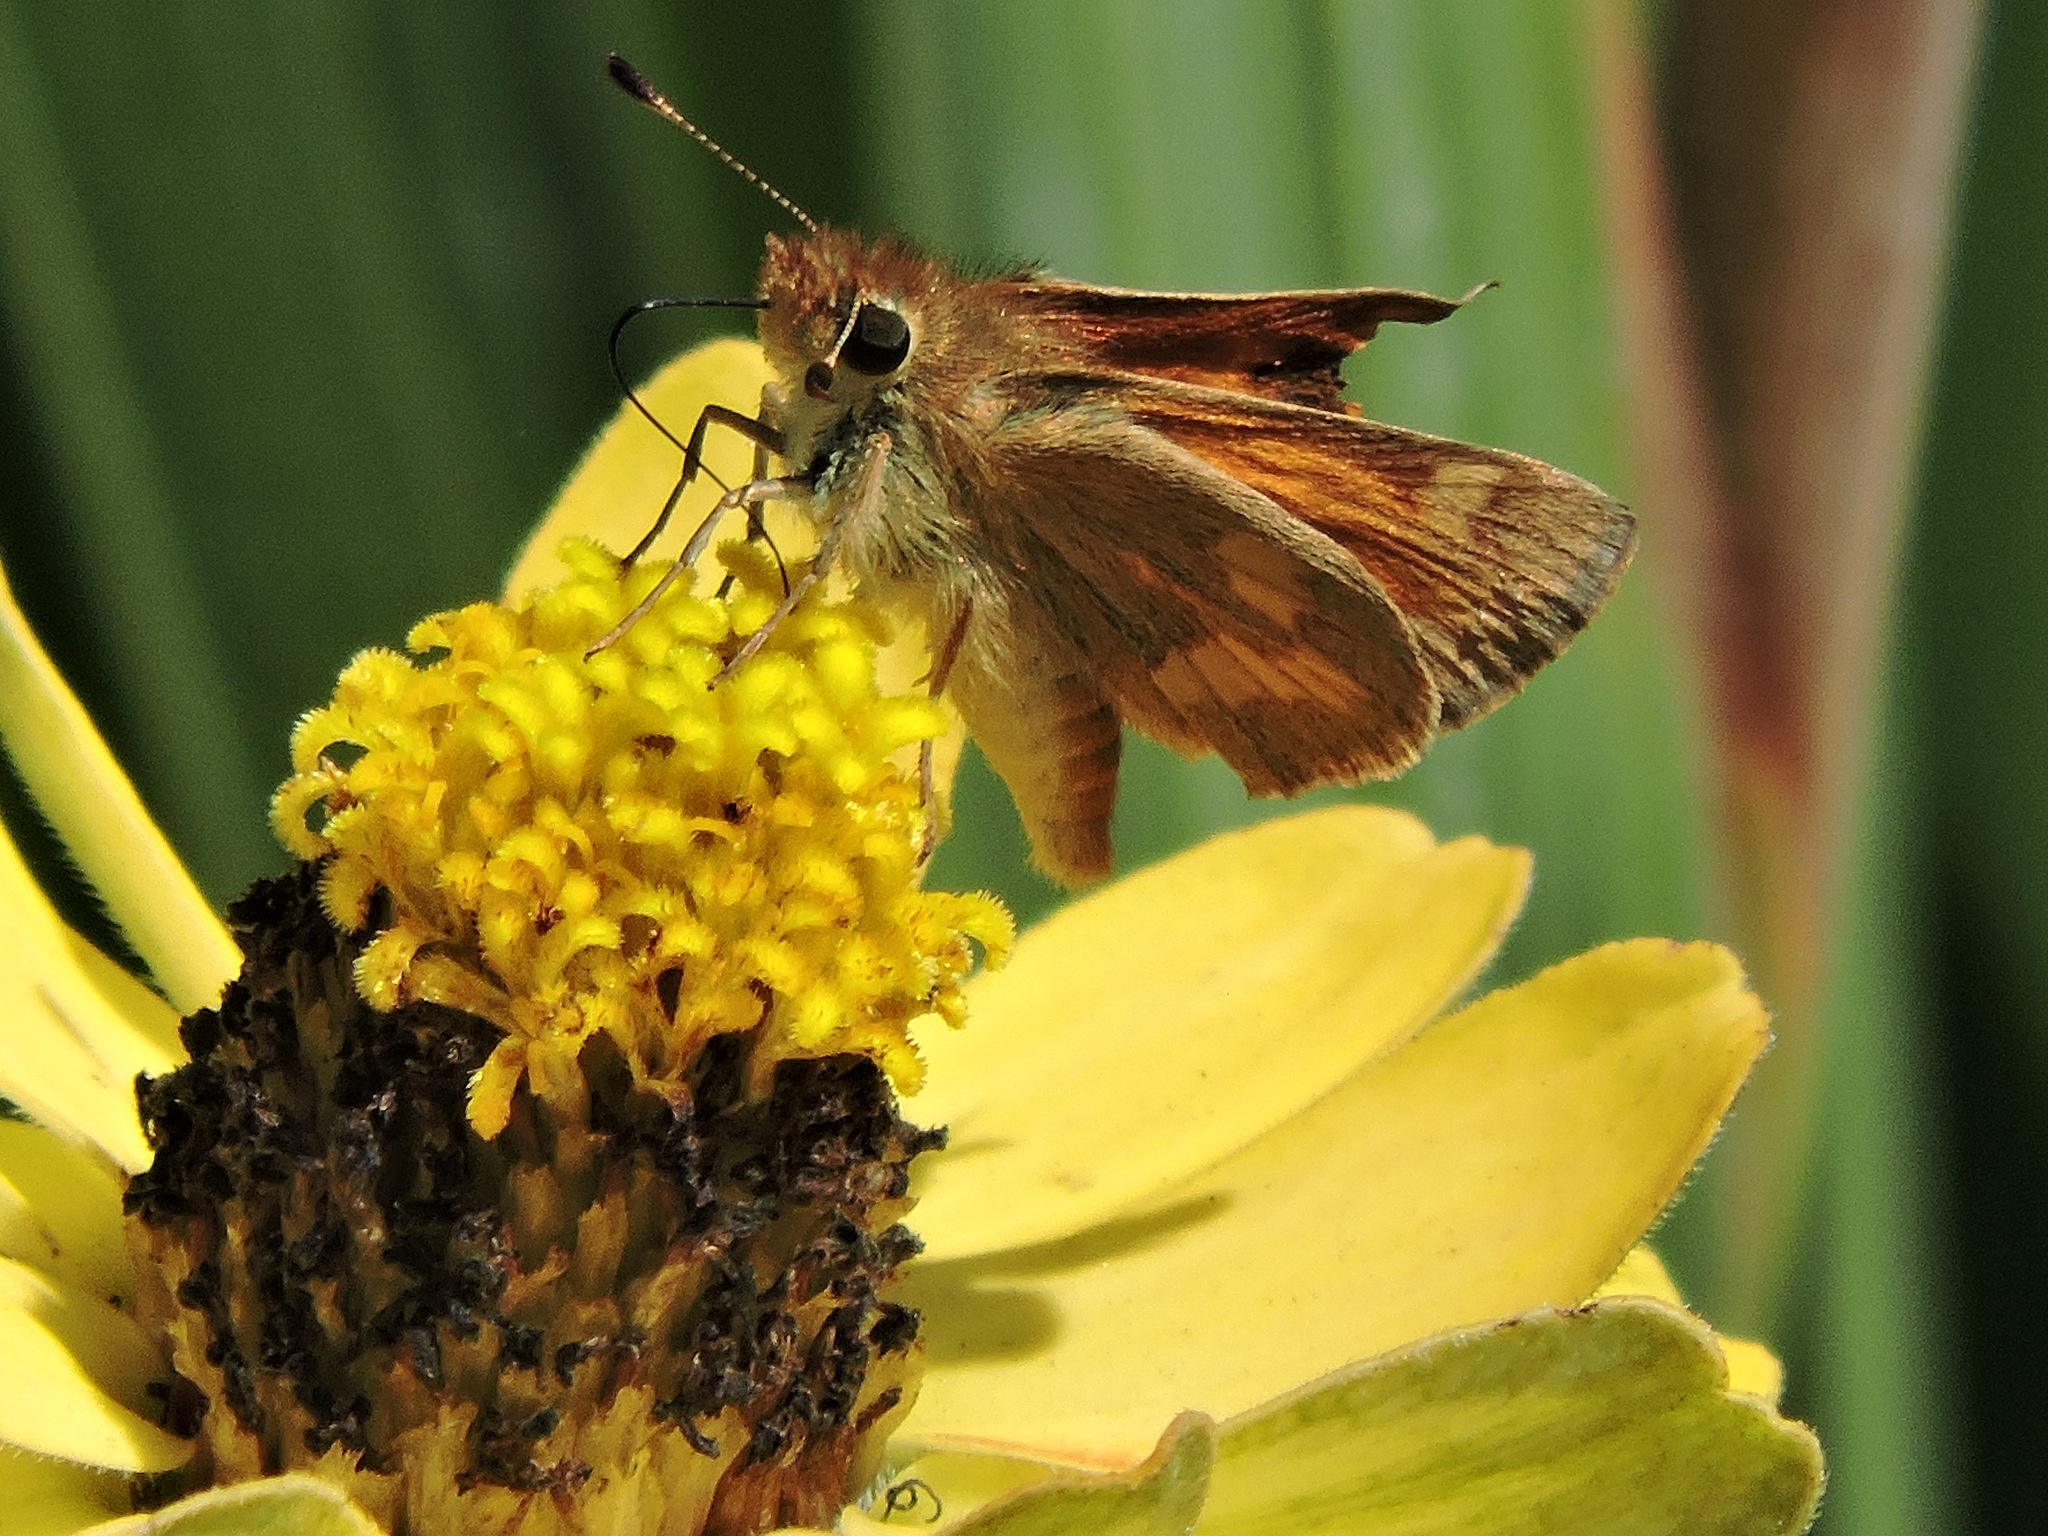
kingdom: Animalia
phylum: Arthropoda
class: Insecta
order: Lepidoptera
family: Hesperiidae
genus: Ochlodes
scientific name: Ochlodes sylvanoides
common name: Woodland skipper
